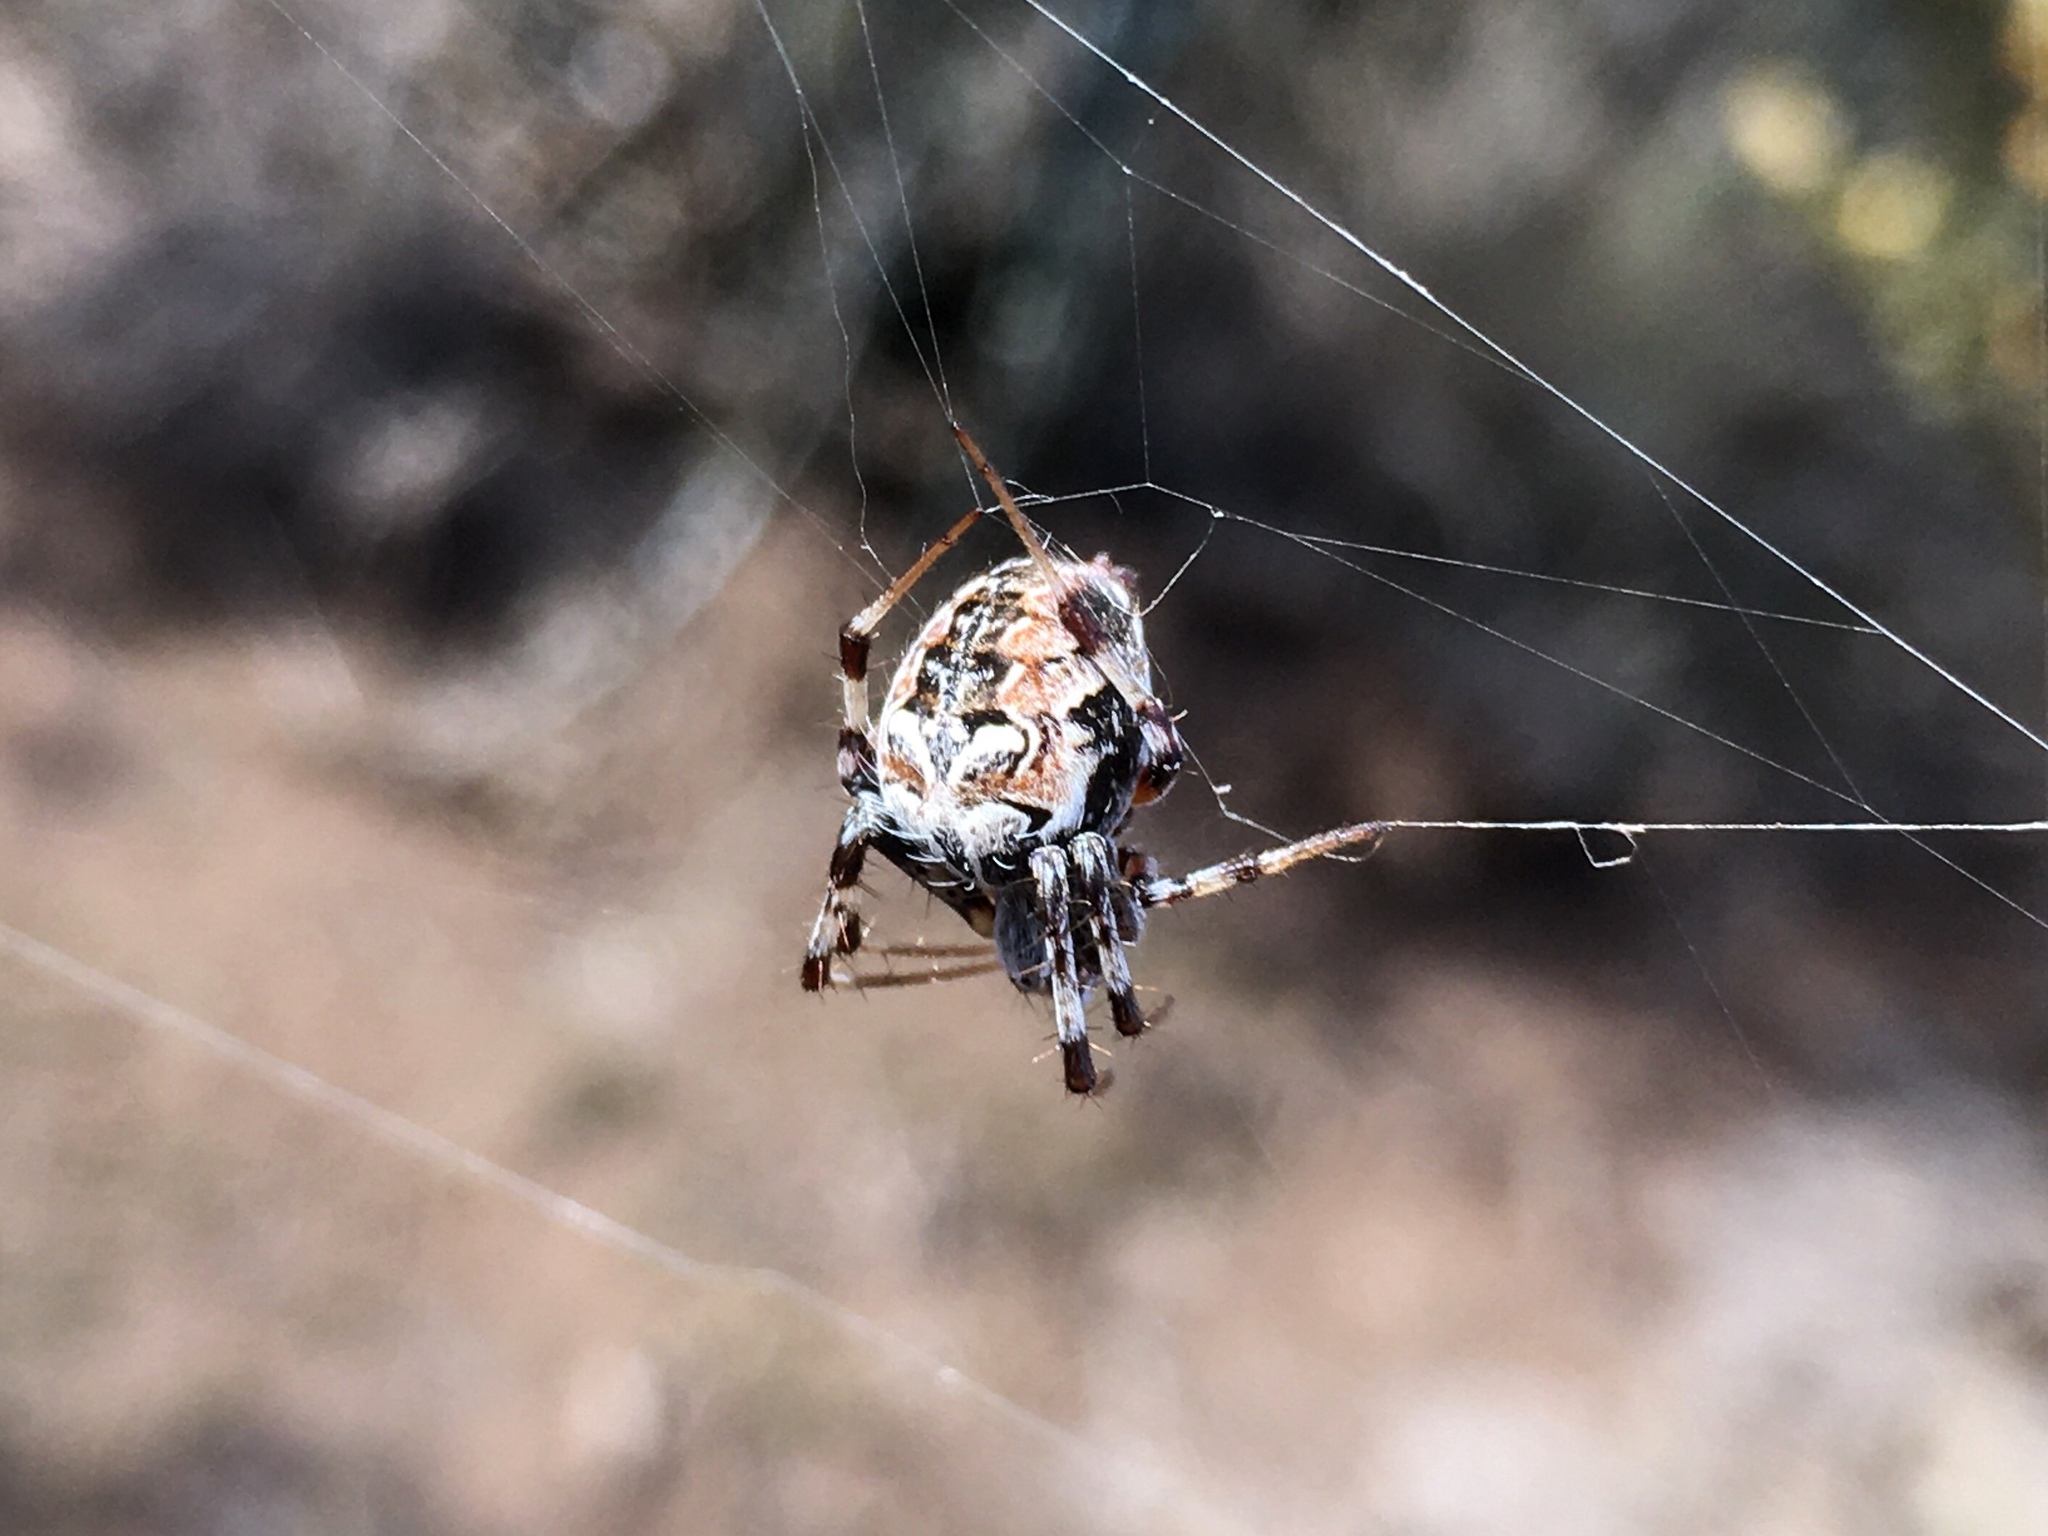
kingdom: Animalia
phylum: Arthropoda
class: Arachnida
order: Araneae
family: Araneidae
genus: Metepeira
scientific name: Metepeira
